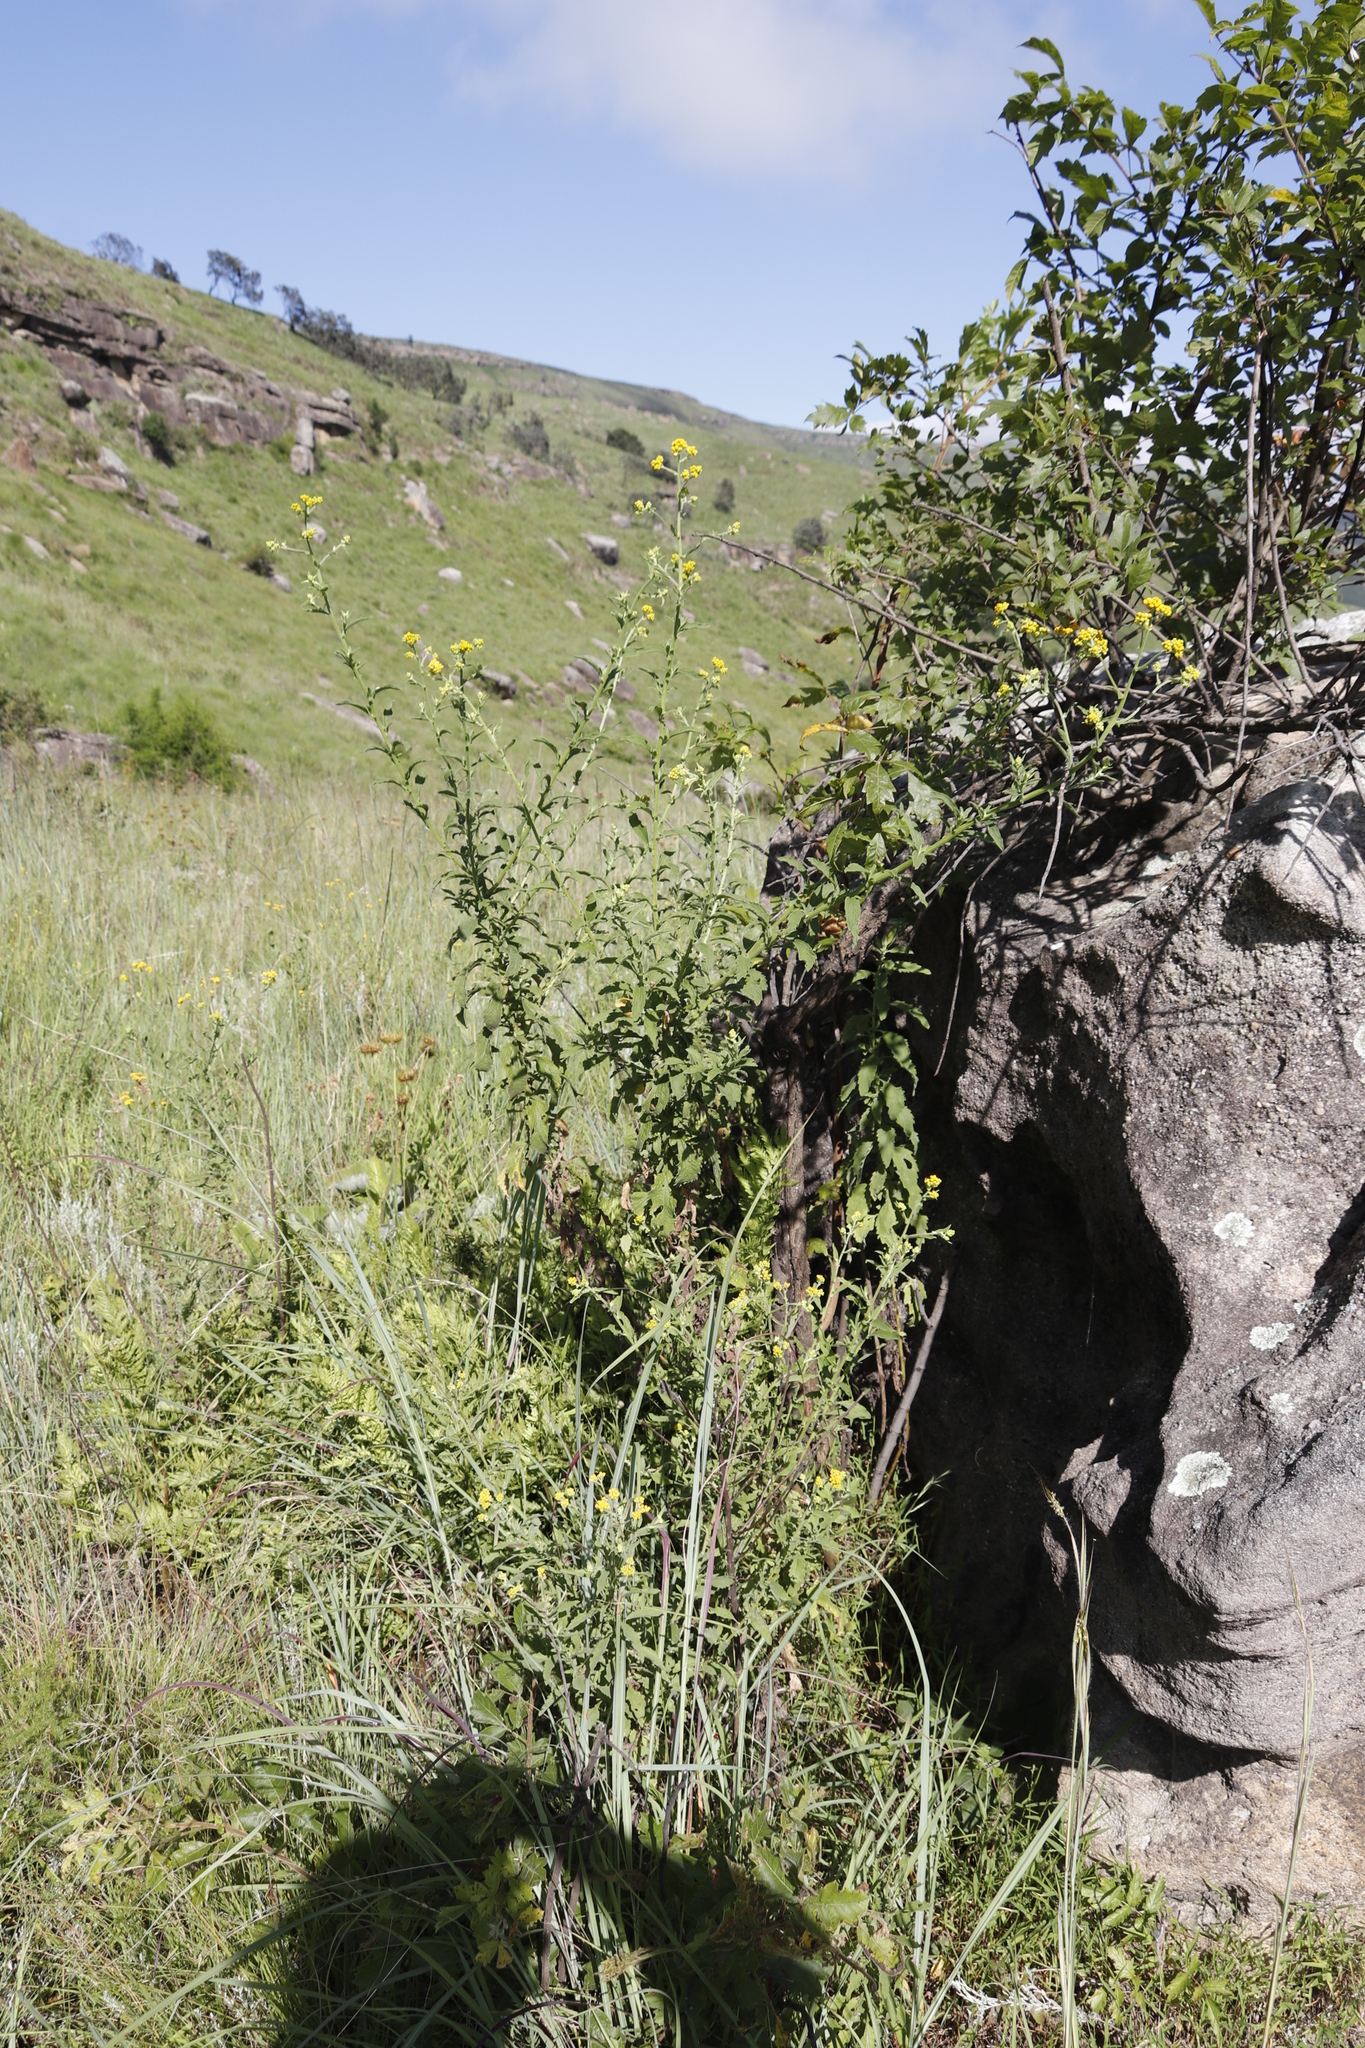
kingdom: Plantae
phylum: Tracheophyta
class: Magnoliopsida
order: Asterales
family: Asteraceae
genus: Nidorella
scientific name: Nidorella auriculata
